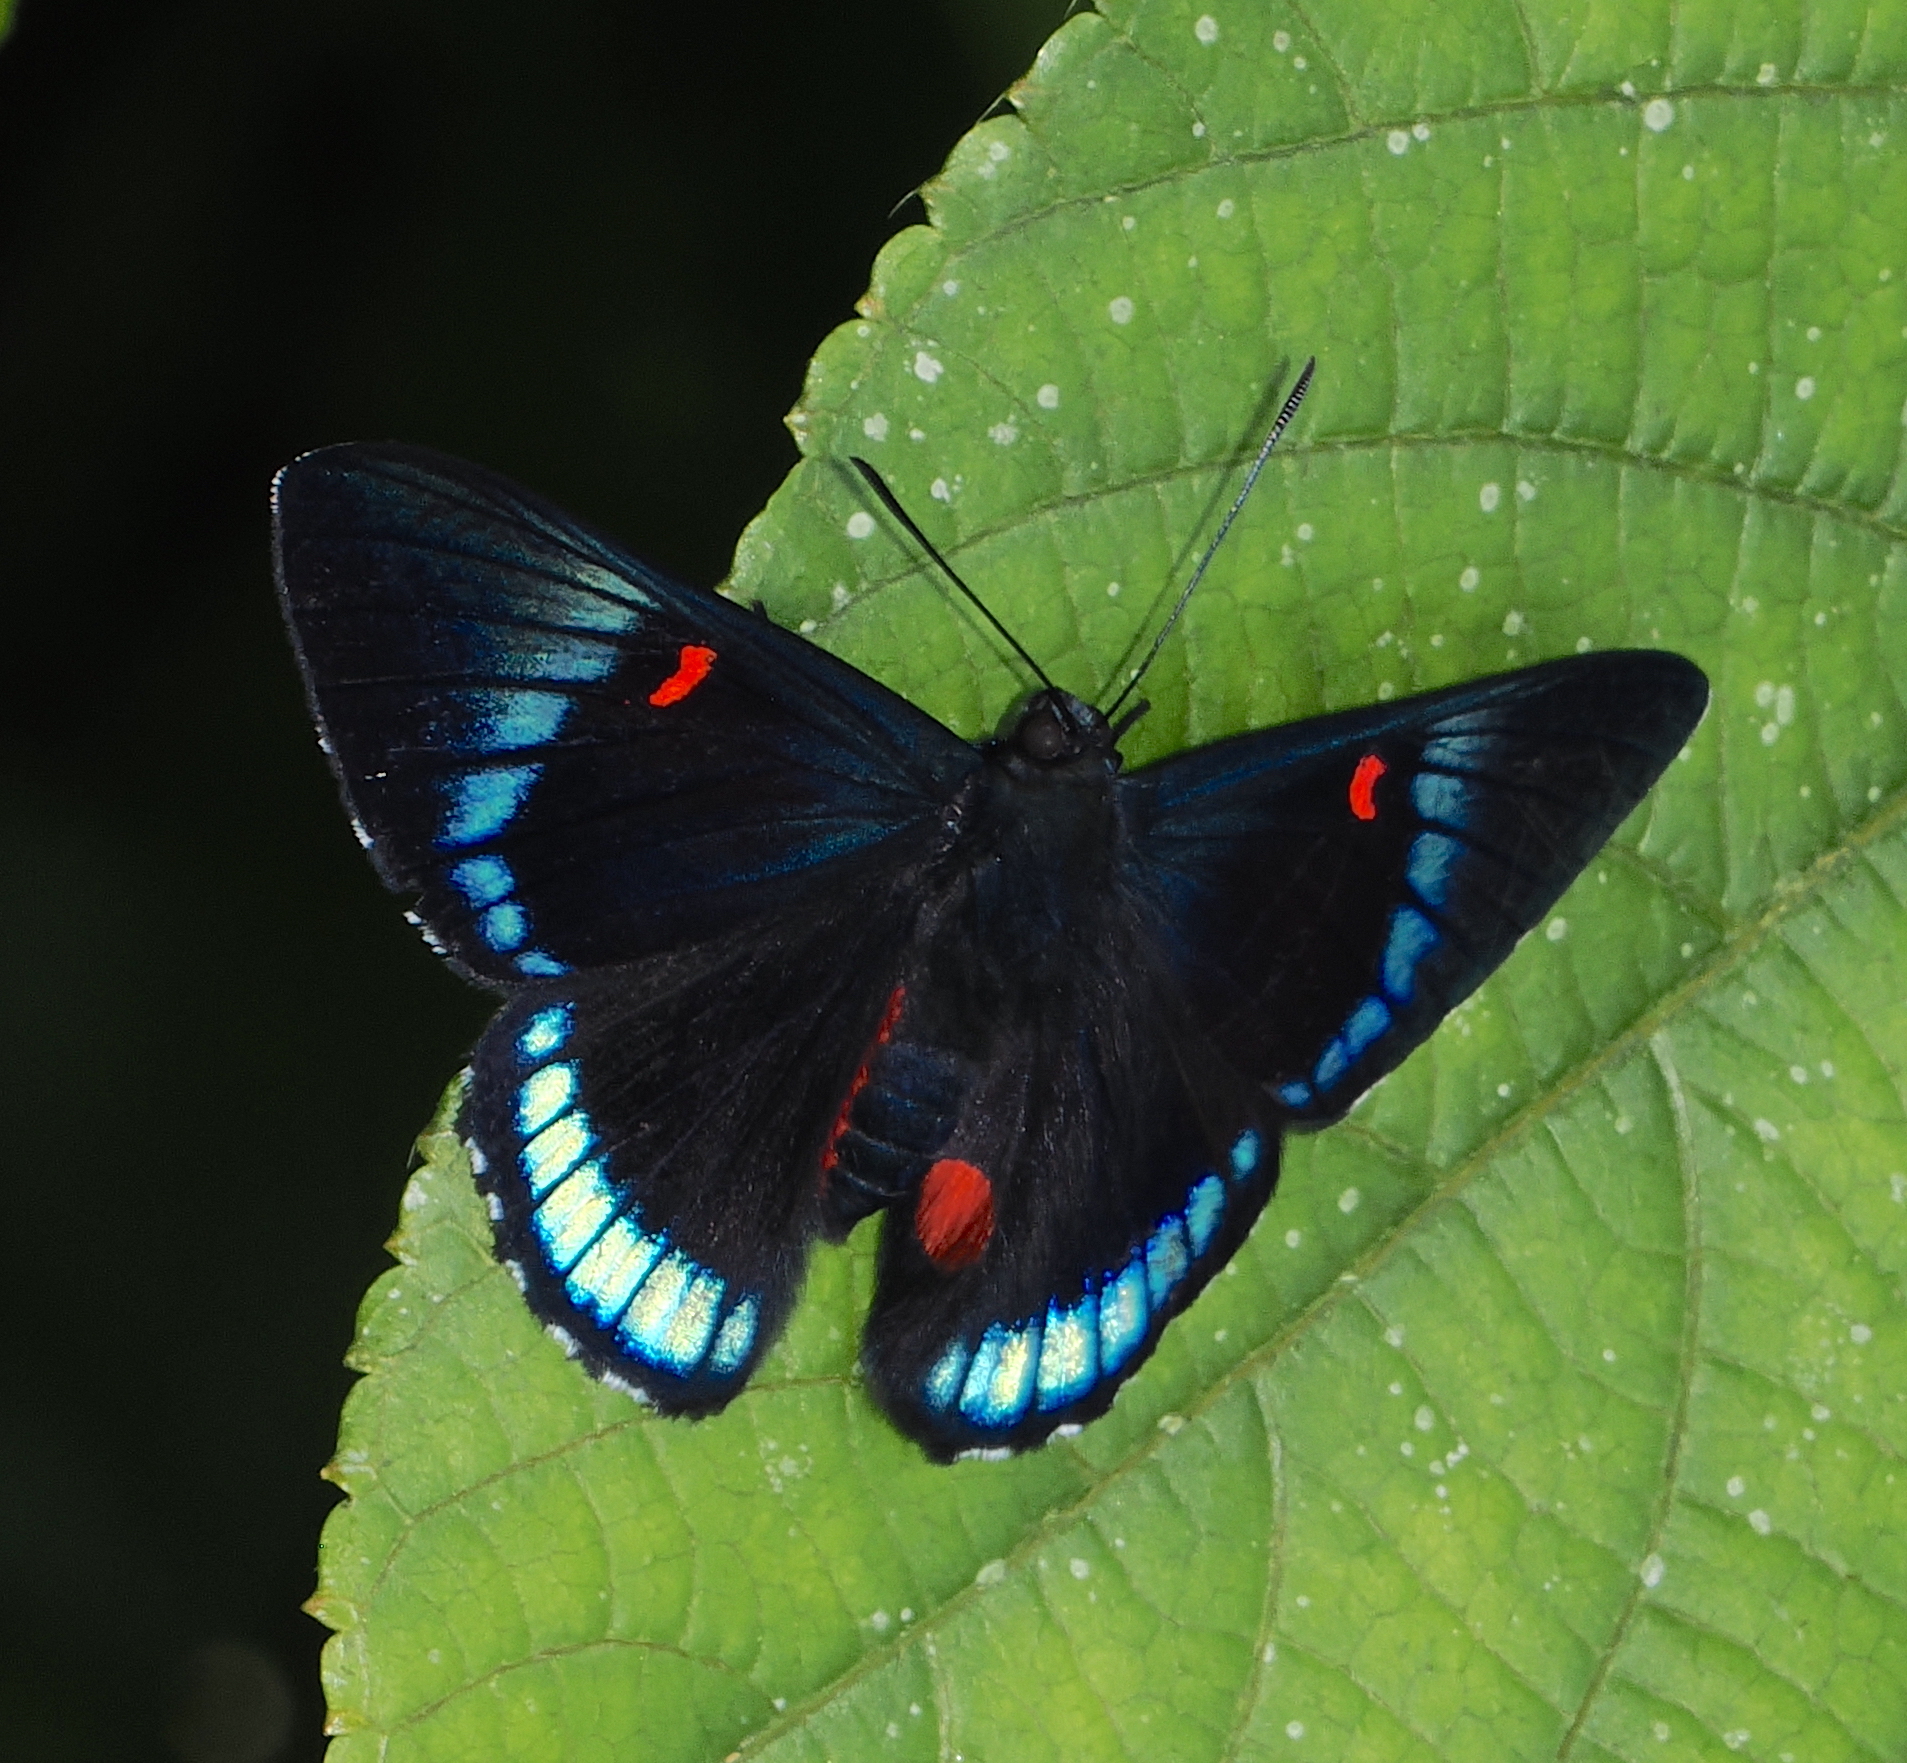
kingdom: Animalia
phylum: Arthropoda
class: Insecta
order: Lepidoptera
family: Lycaenidae
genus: Necyria
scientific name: Necyria bellona
